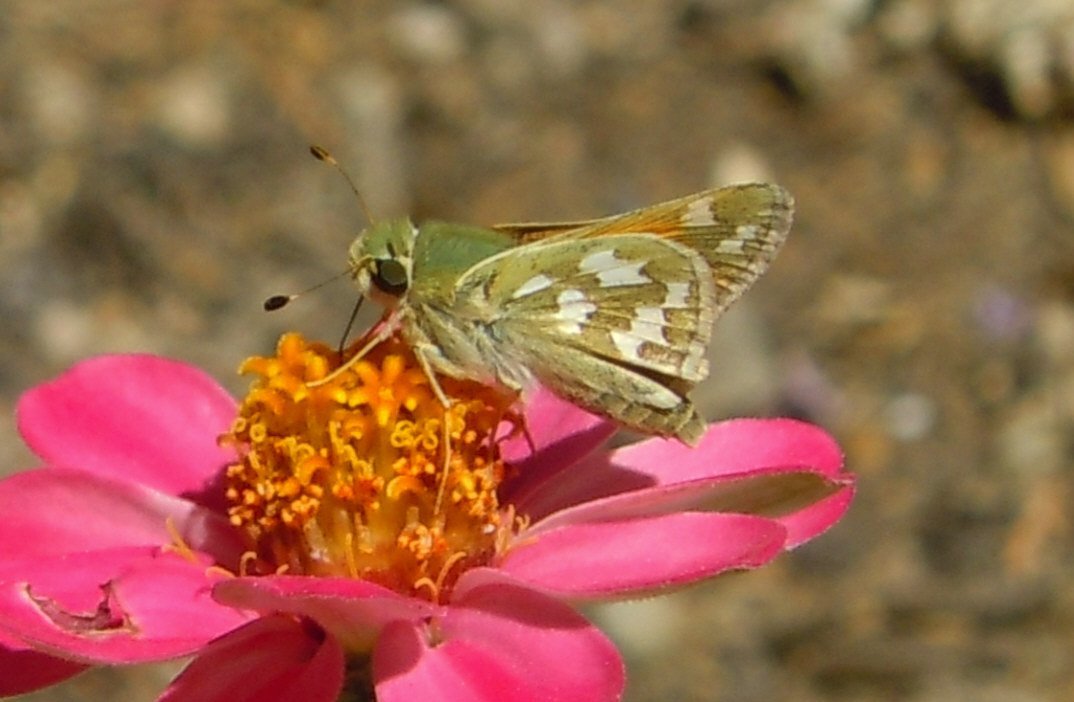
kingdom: Animalia
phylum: Arthropoda
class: Insecta
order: Lepidoptera
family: Hesperiidae
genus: Hesperia
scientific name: Hesperia comma
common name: Common branded skipper
